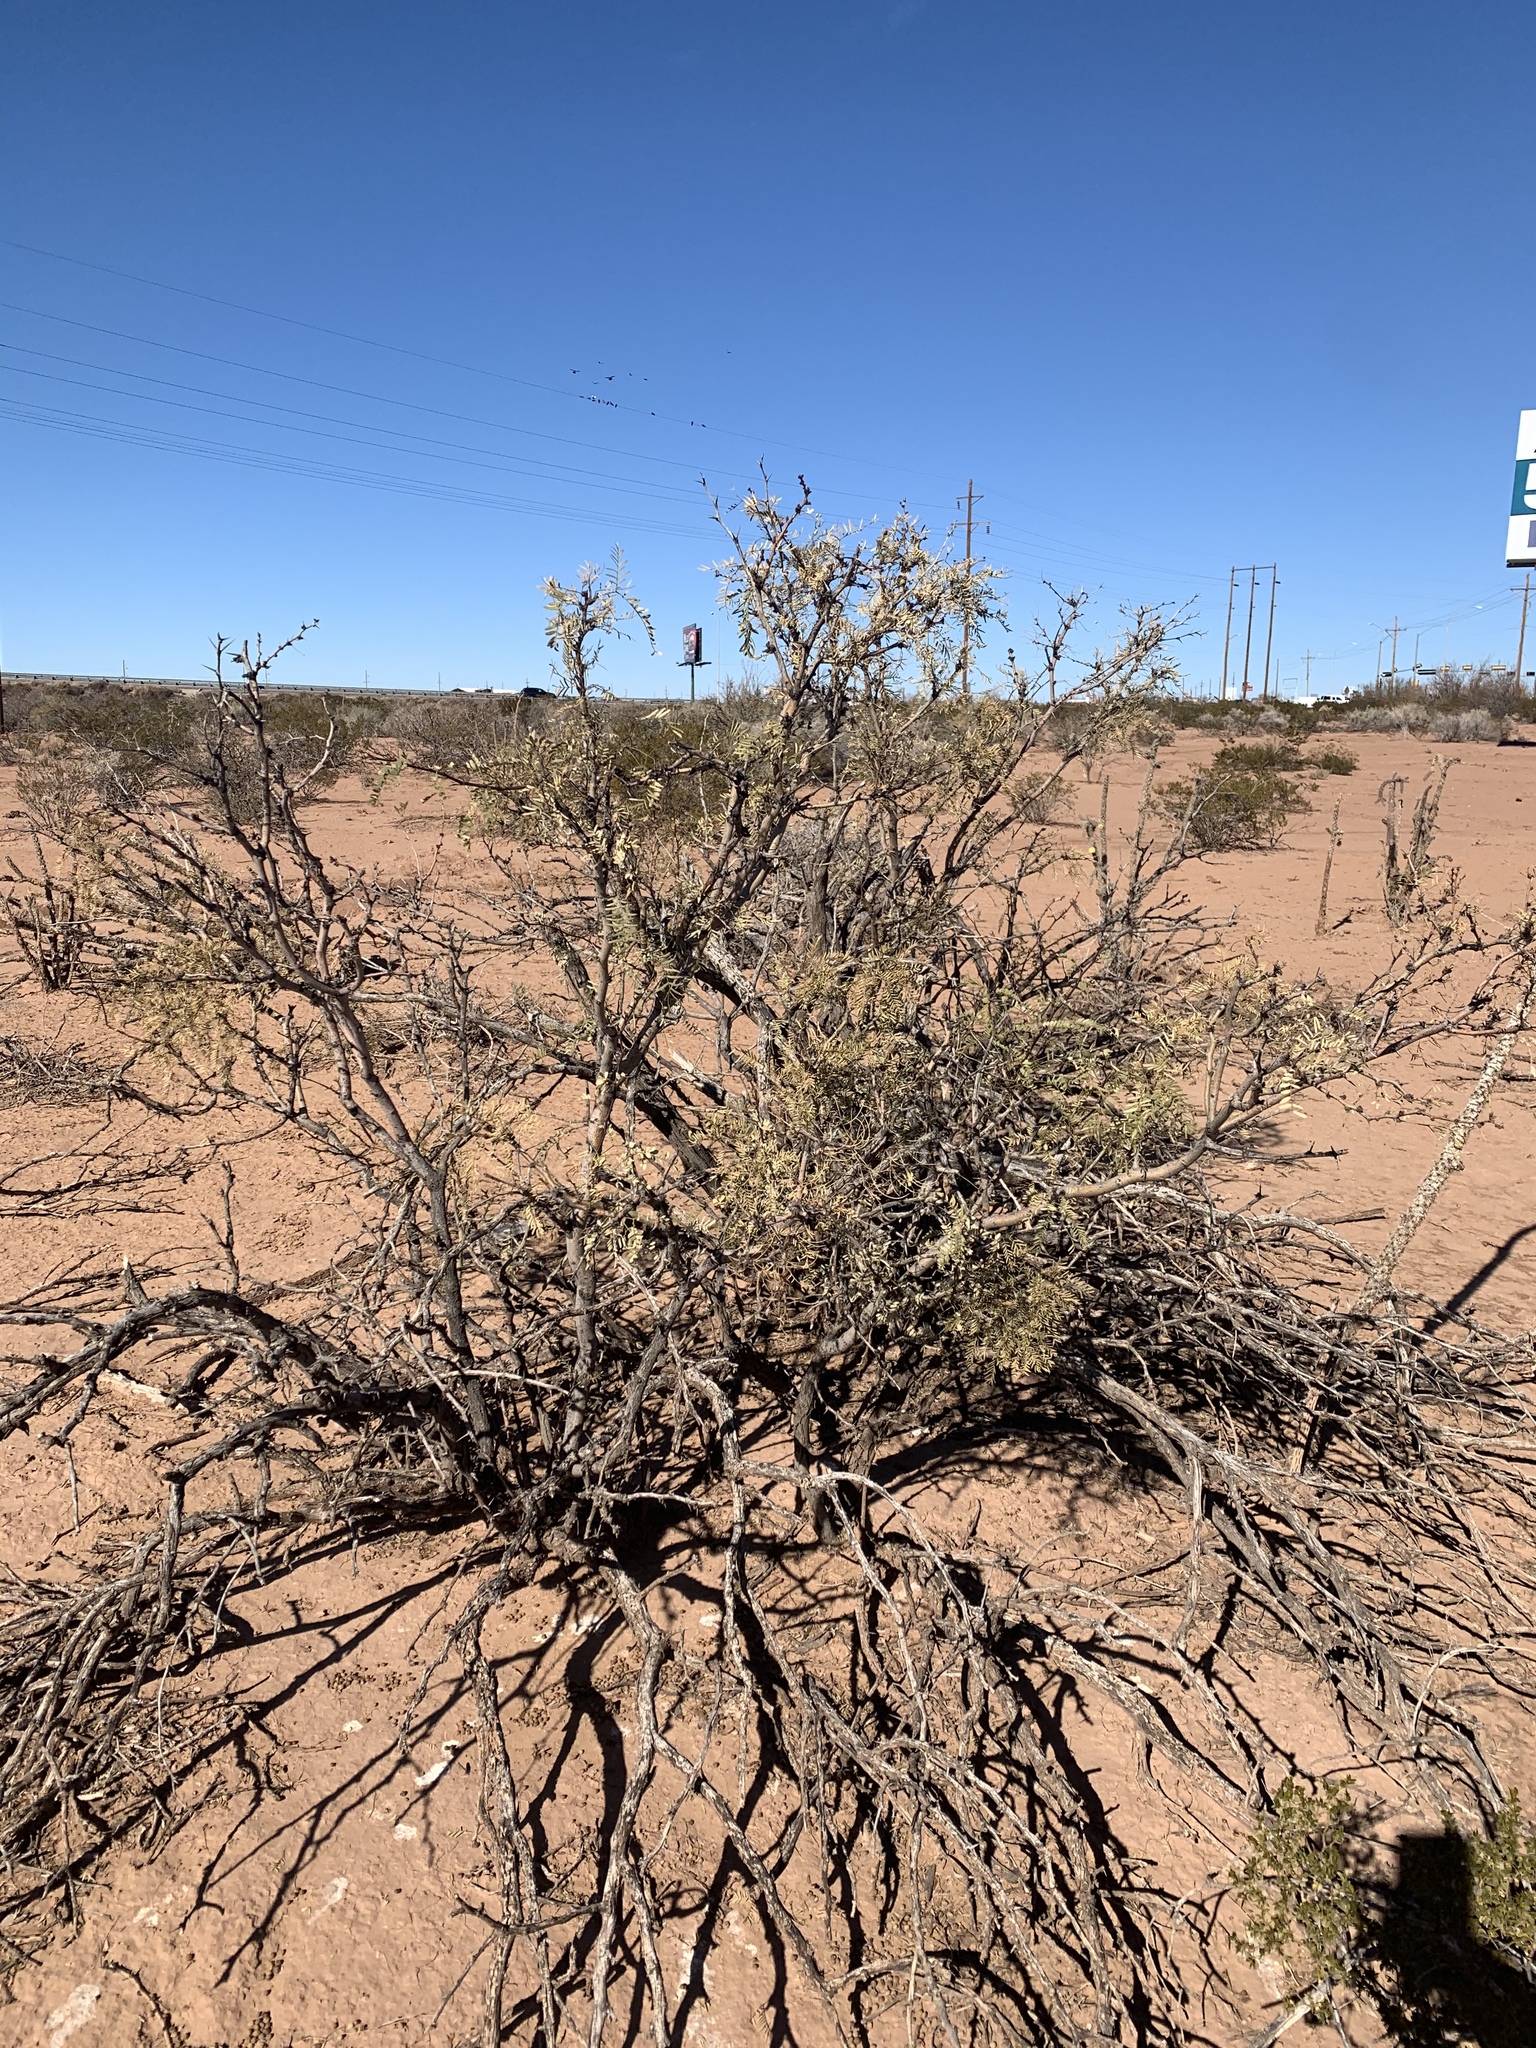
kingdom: Plantae
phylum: Tracheophyta
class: Magnoliopsida
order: Fabales
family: Fabaceae
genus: Prosopis
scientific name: Prosopis glandulosa
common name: Honey mesquite
